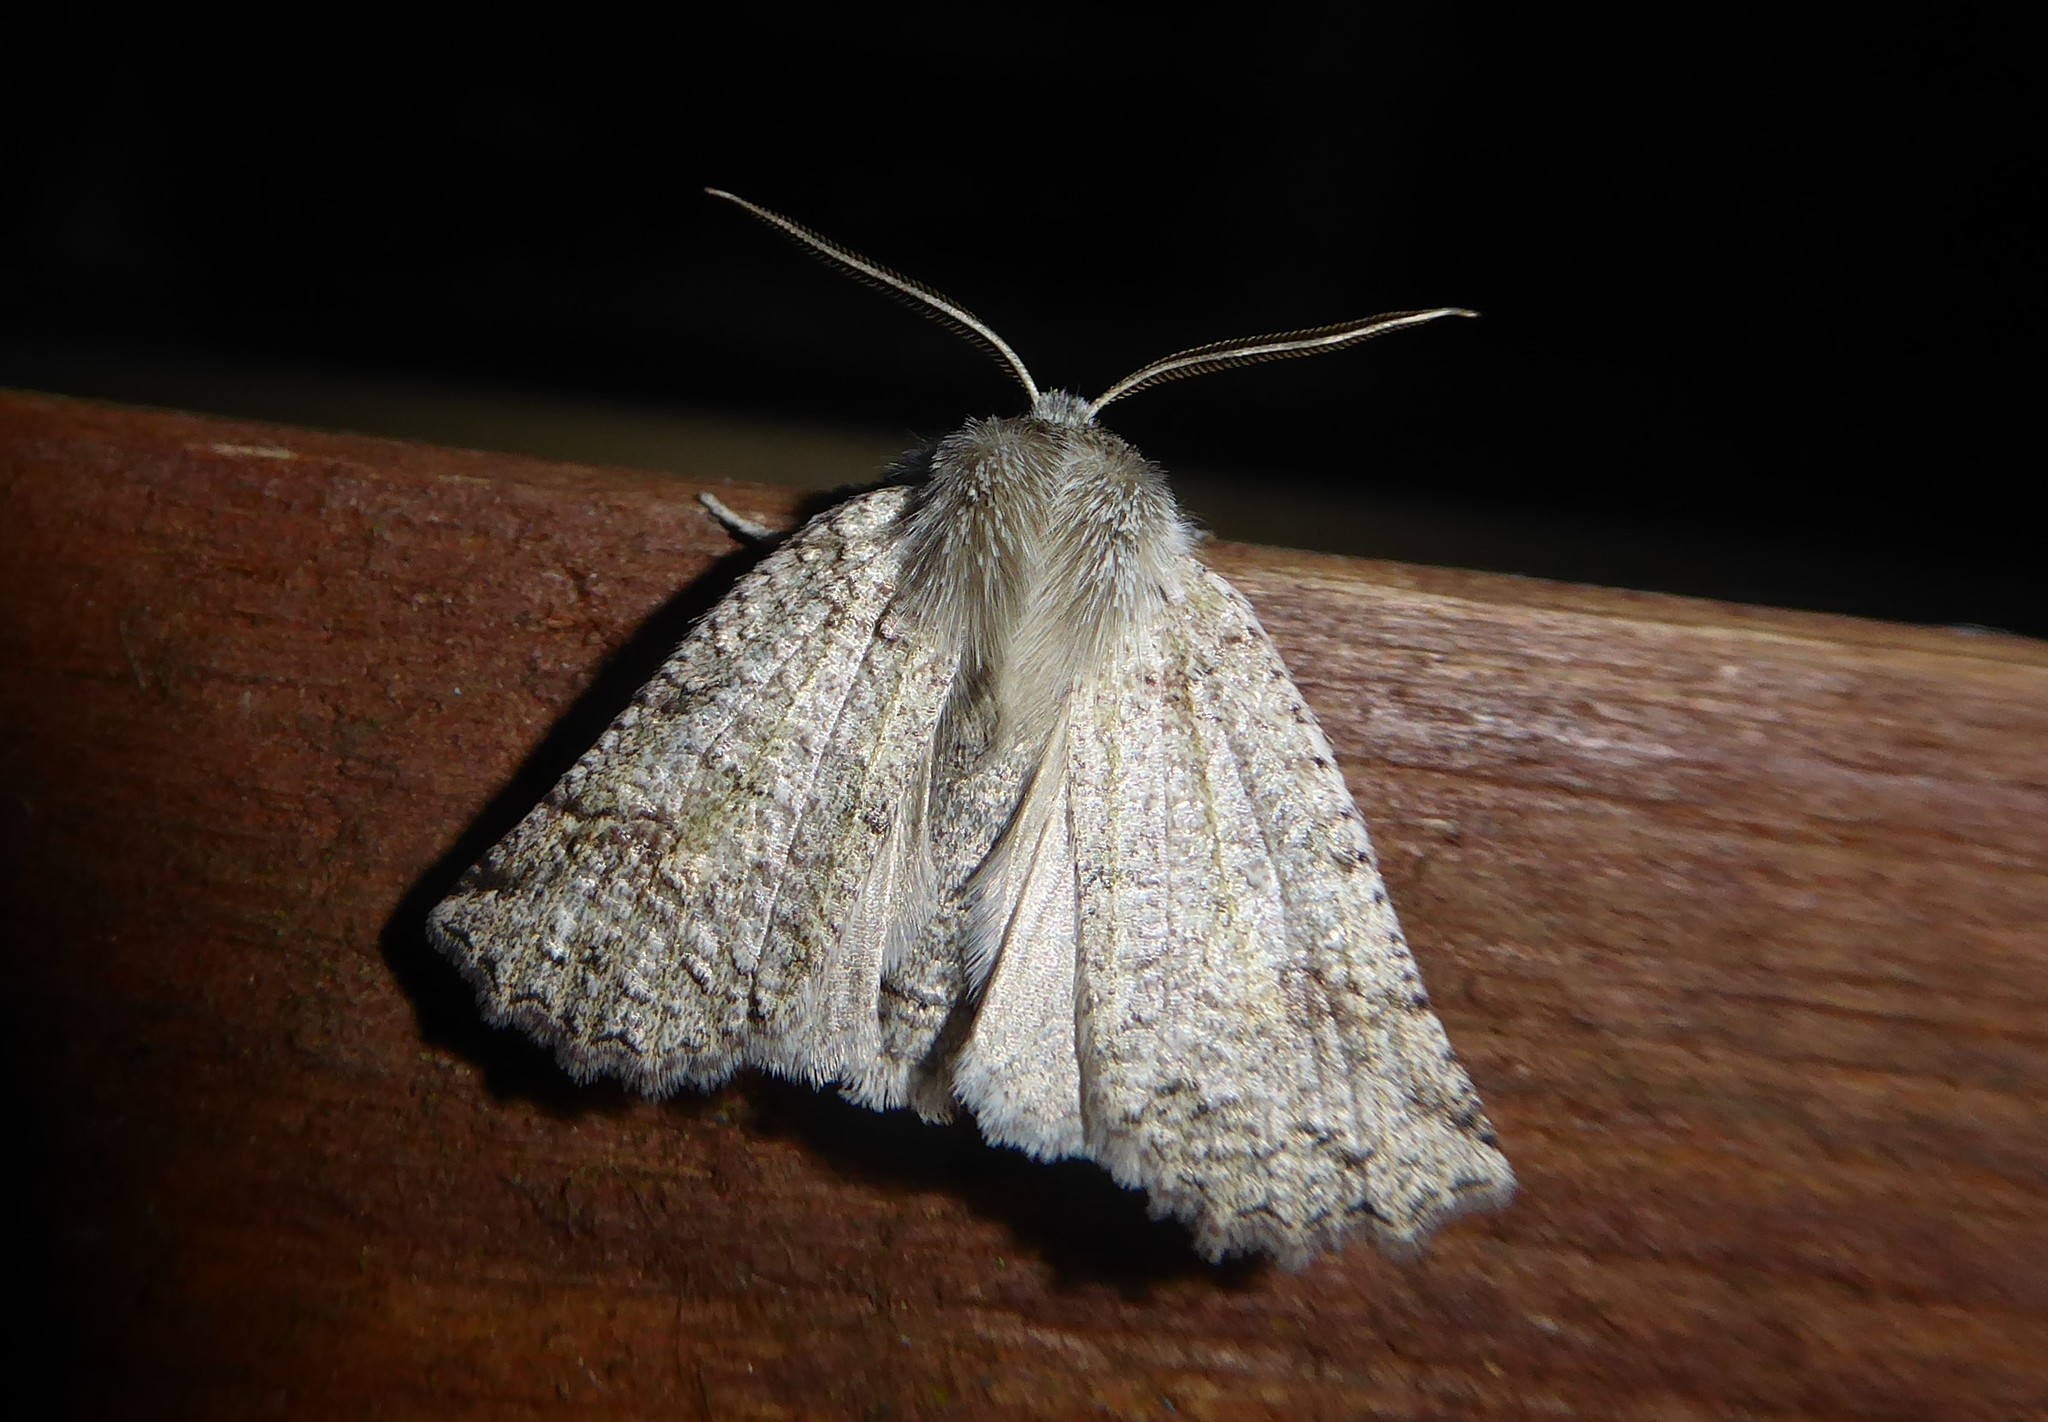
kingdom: Animalia
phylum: Arthropoda
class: Insecta
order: Lepidoptera
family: Geometridae
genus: Declana
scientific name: Declana floccosa
